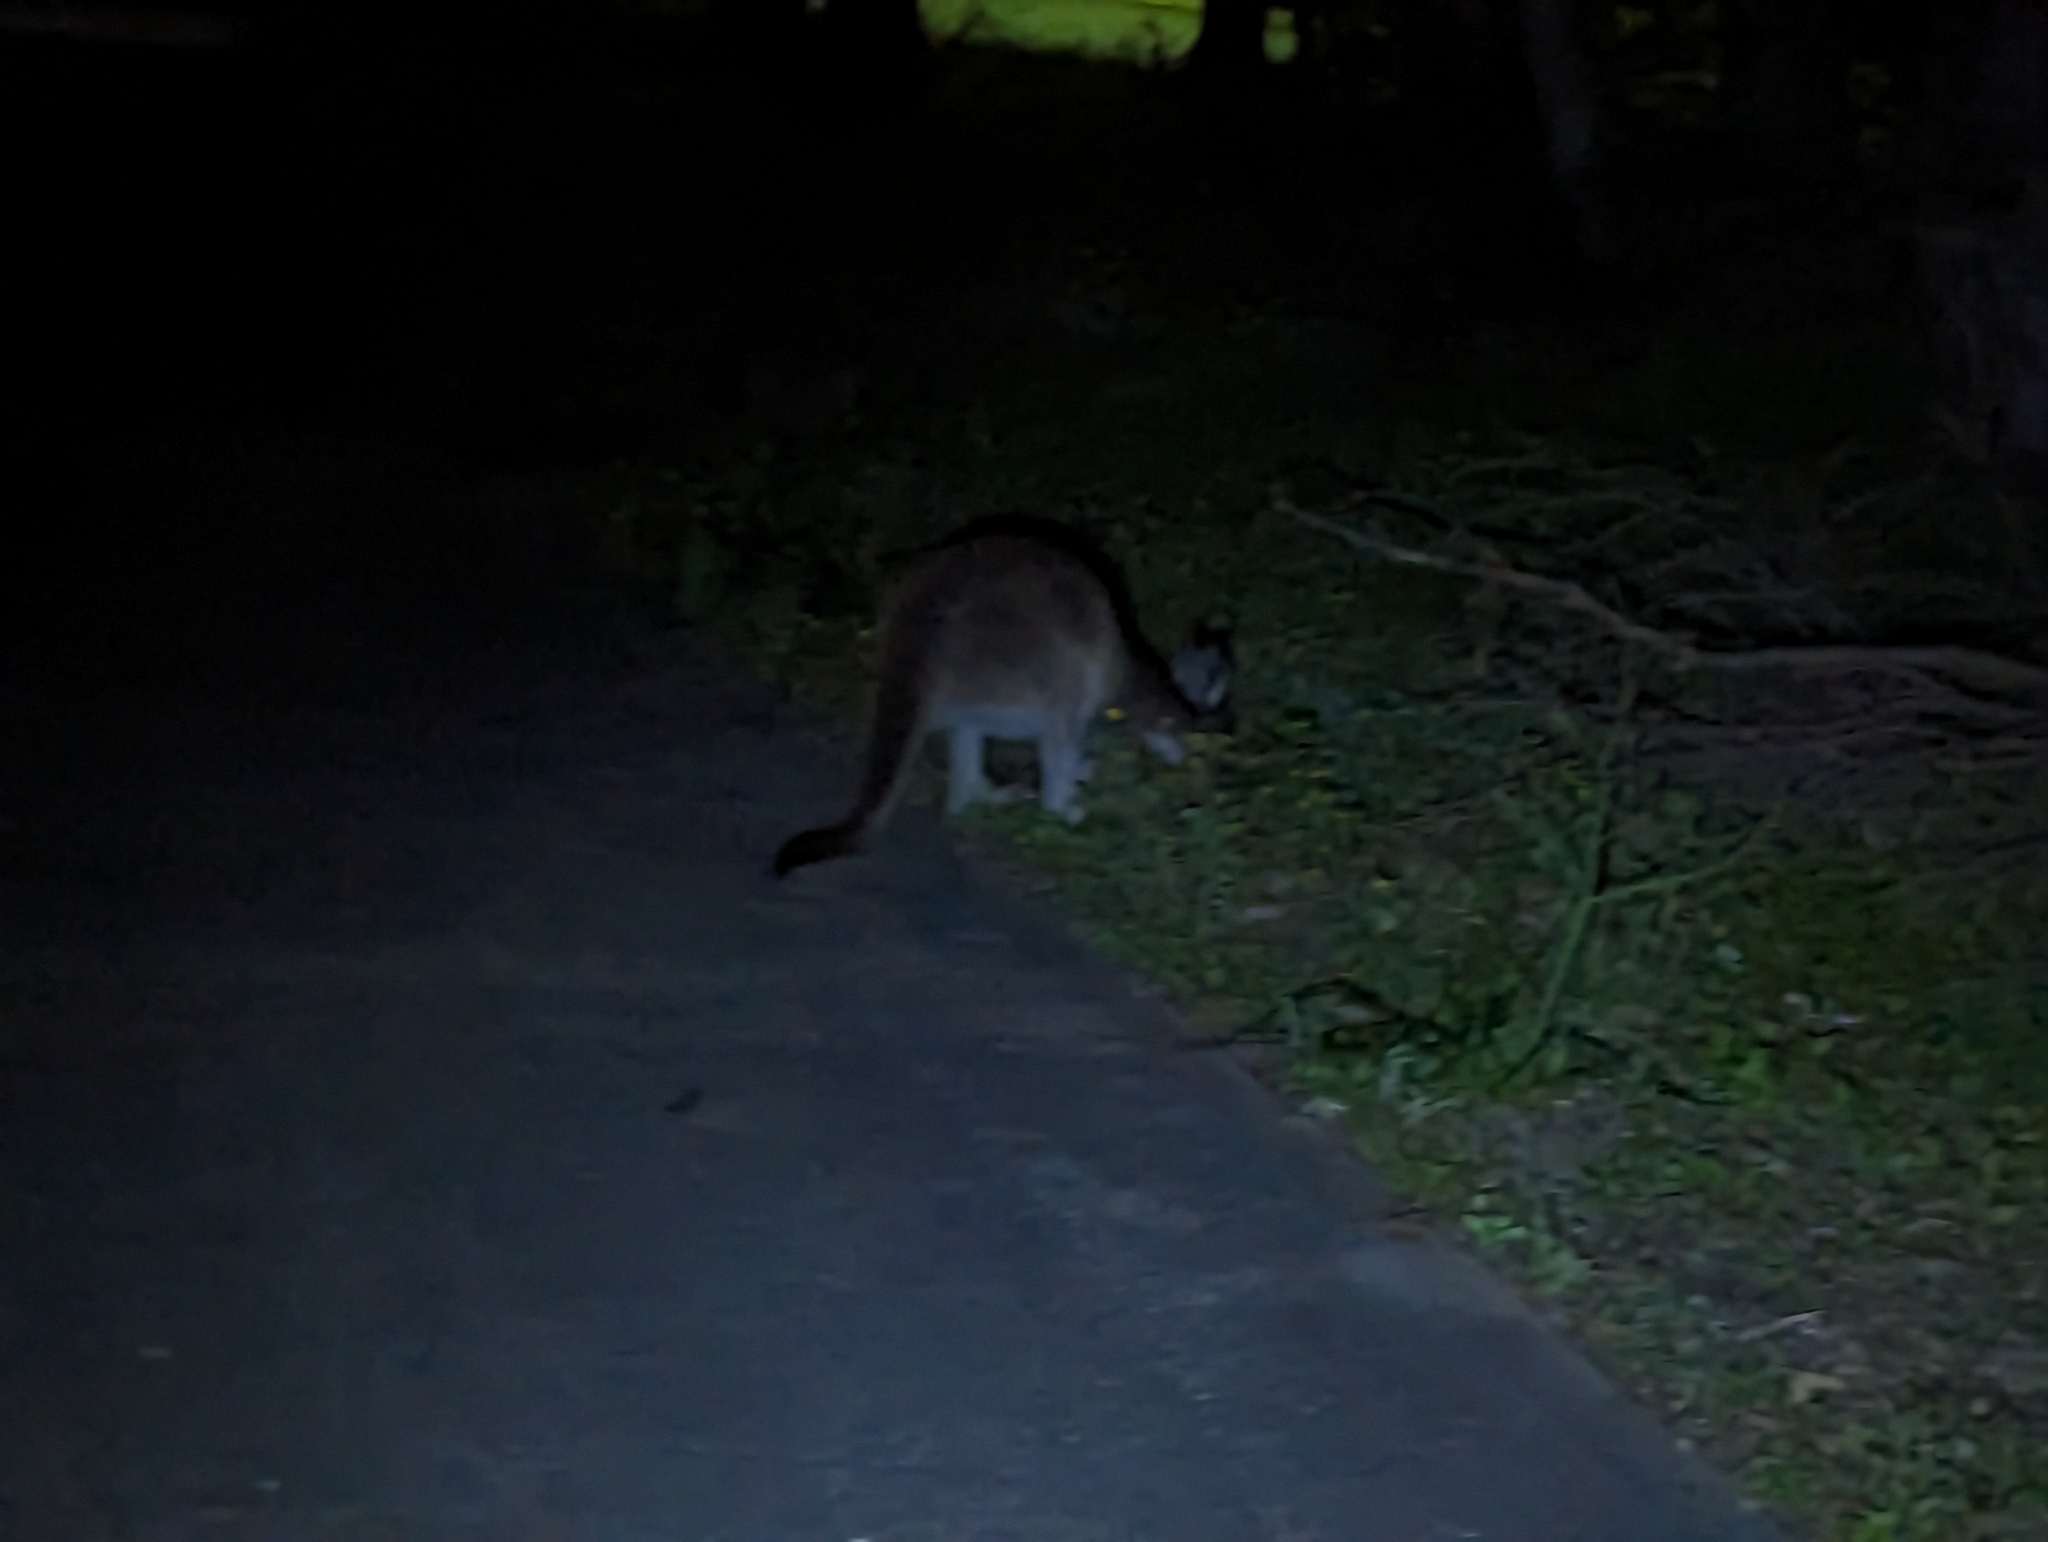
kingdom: Animalia
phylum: Chordata
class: Mammalia
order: Diprotodontia
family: Macropodidae
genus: Macropus
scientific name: Macropus fuliginosus
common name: Western grey kangaroo
